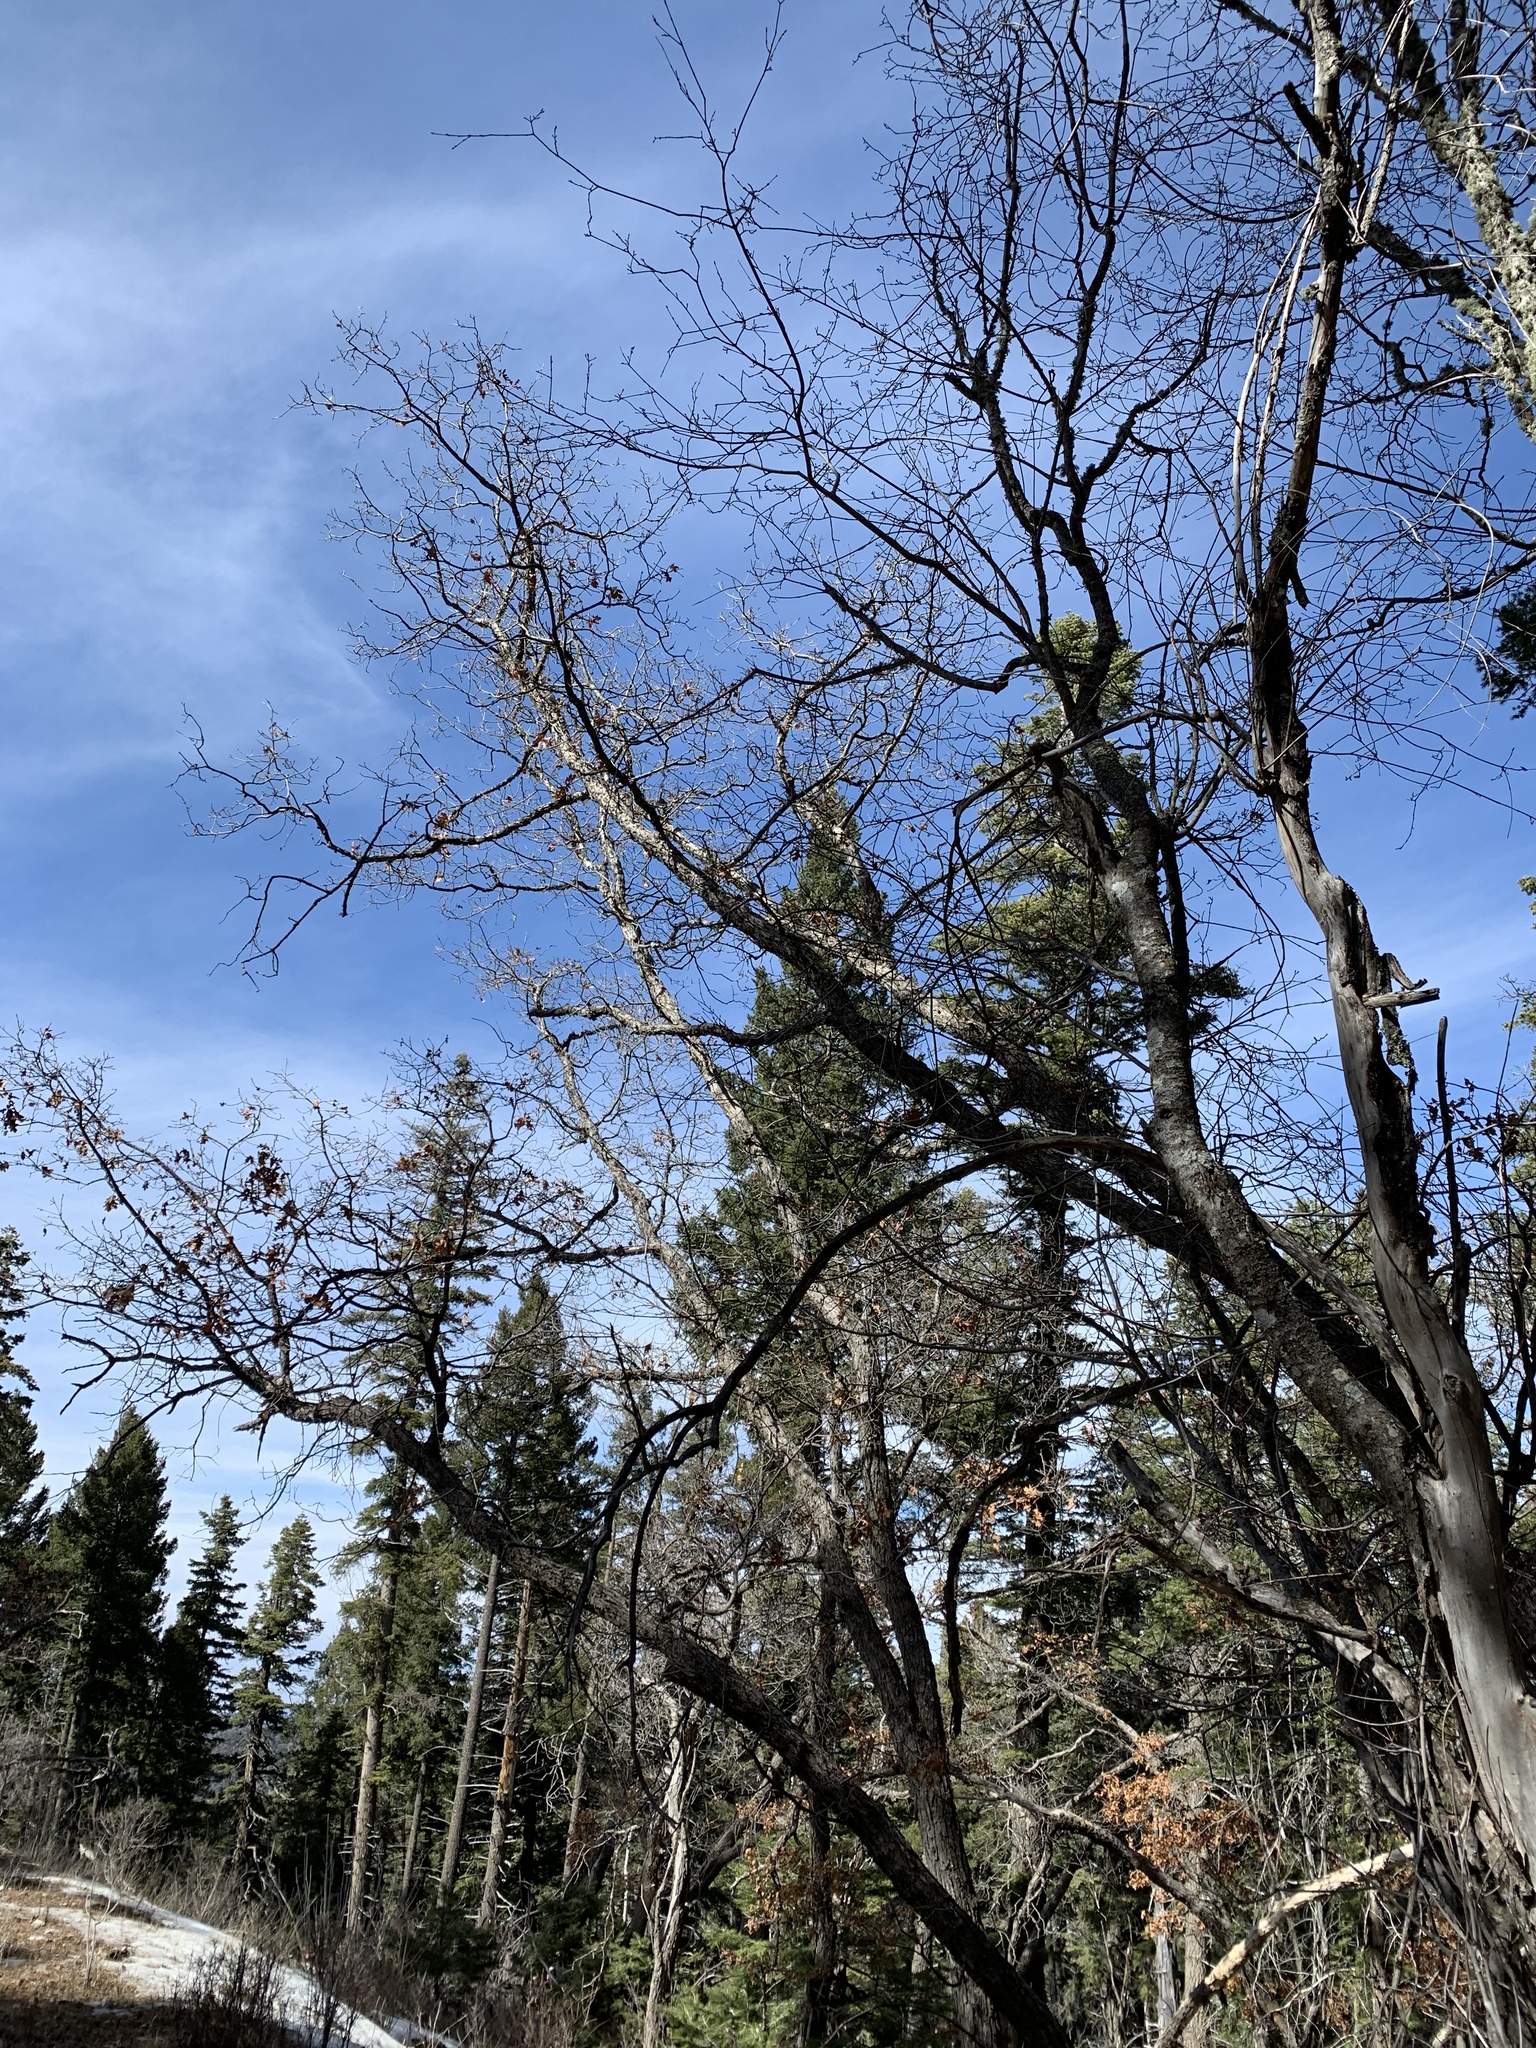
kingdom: Plantae
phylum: Tracheophyta
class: Magnoliopsida
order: Fagales
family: Fagaceae
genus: Quercus
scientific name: Quercus gambelii
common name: Gambel oak
